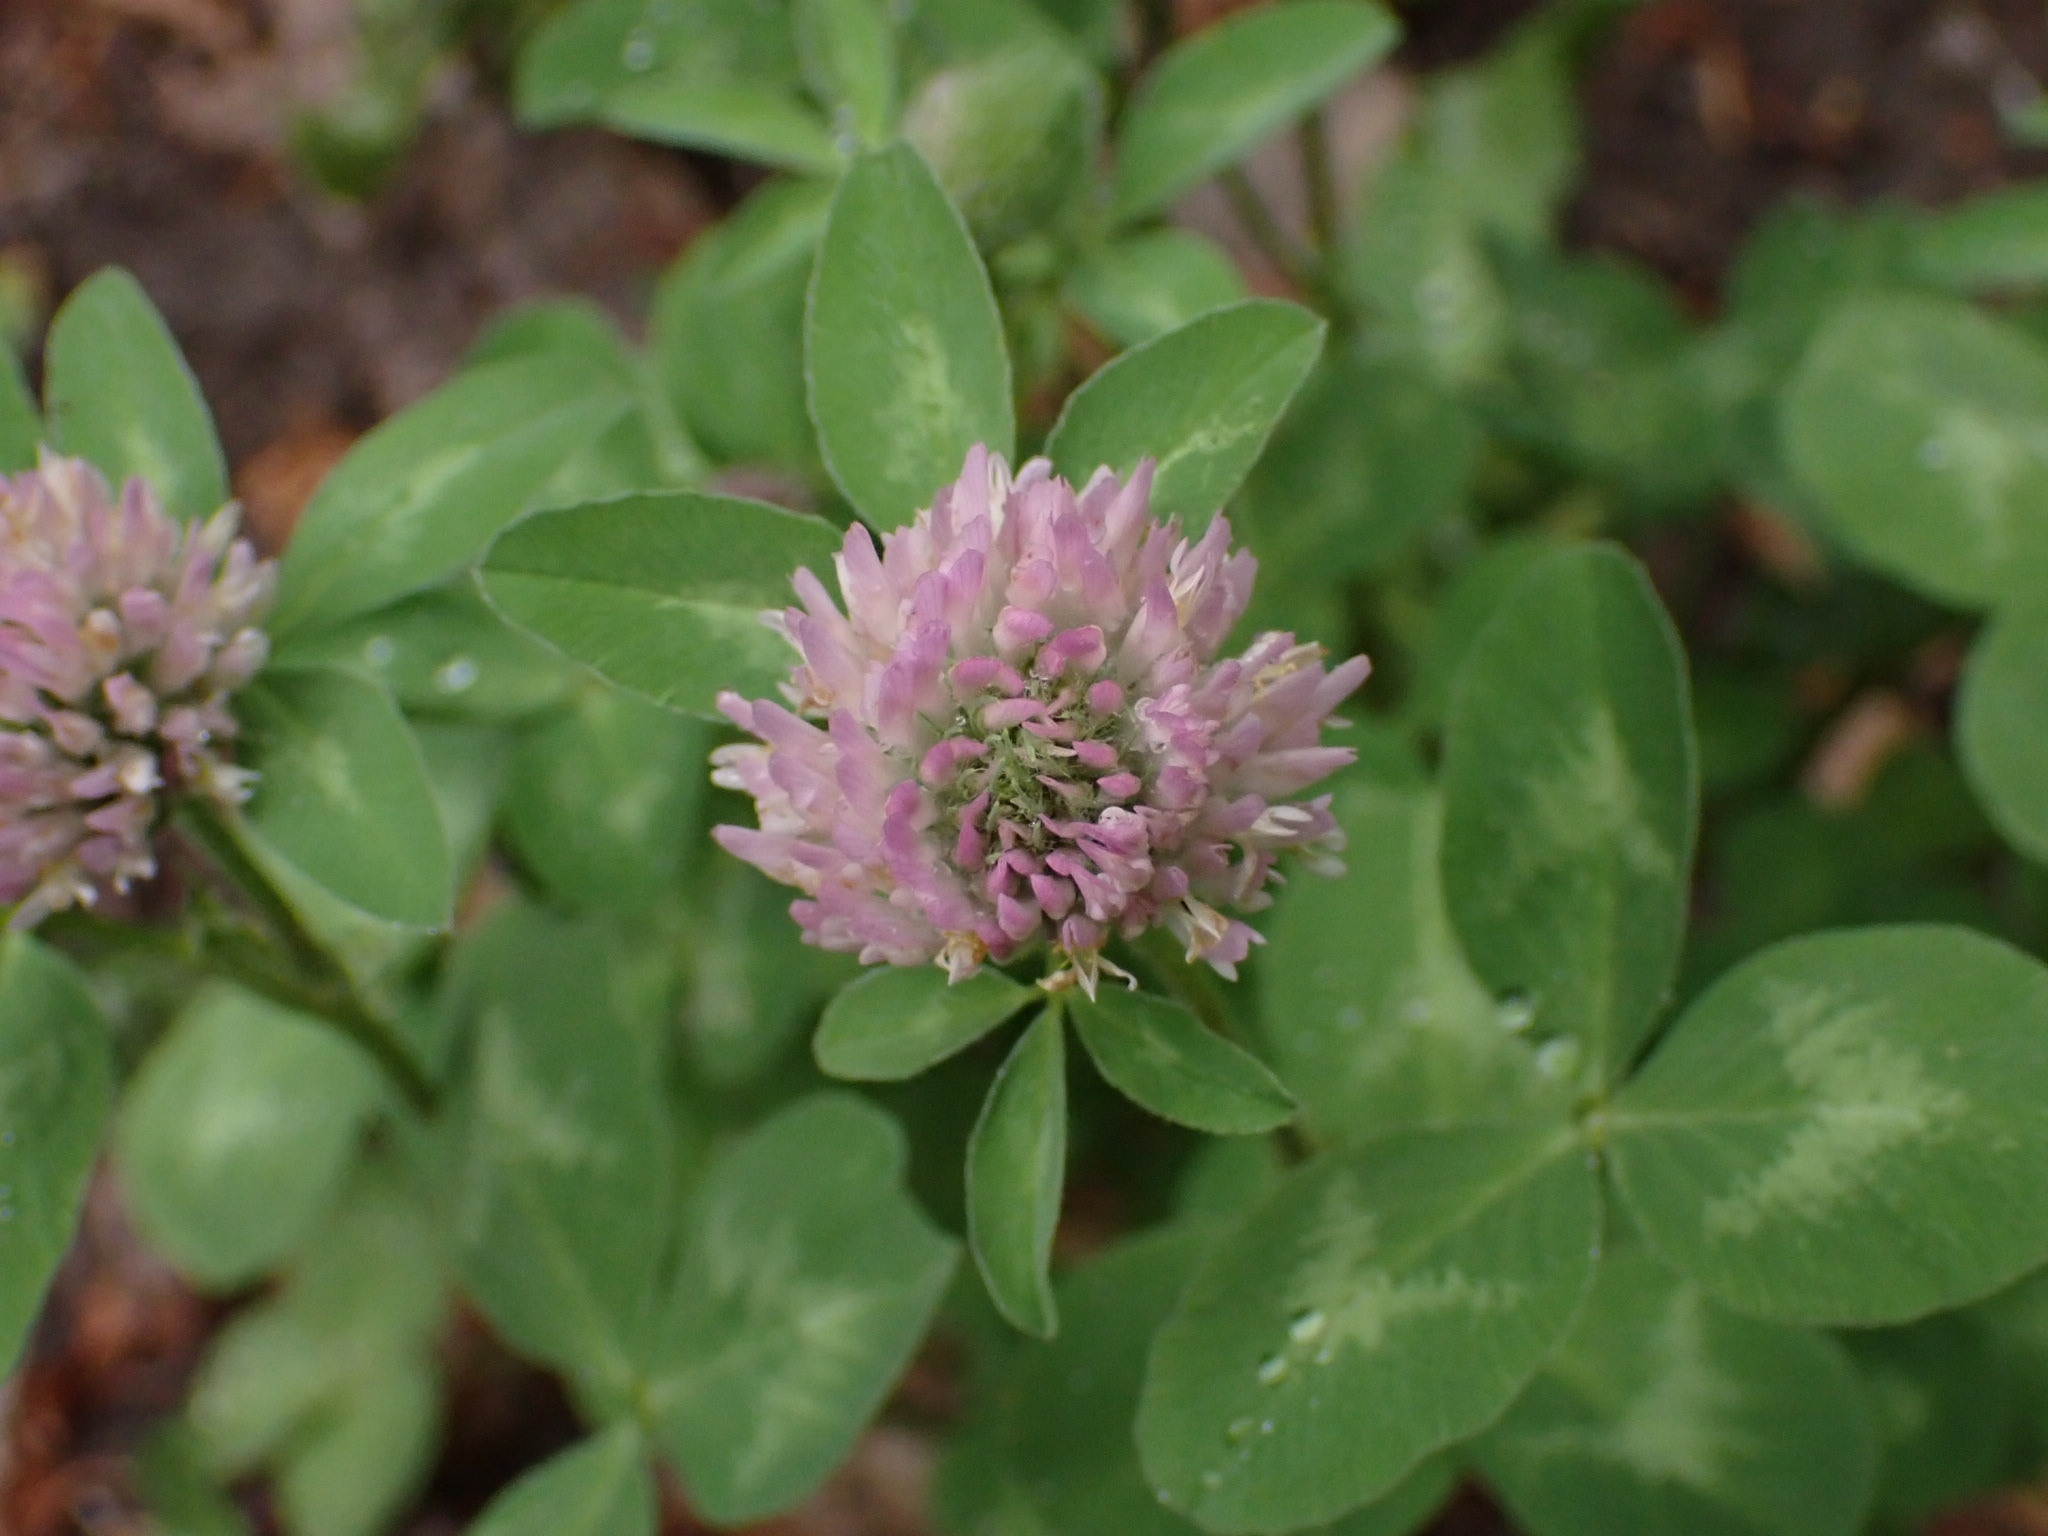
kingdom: Plantae
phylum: Tracheophyta
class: Magnoliopsida
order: Fabales
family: Fabaceae
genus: Trifolium
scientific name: Trifolium pratense
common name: Red clover
